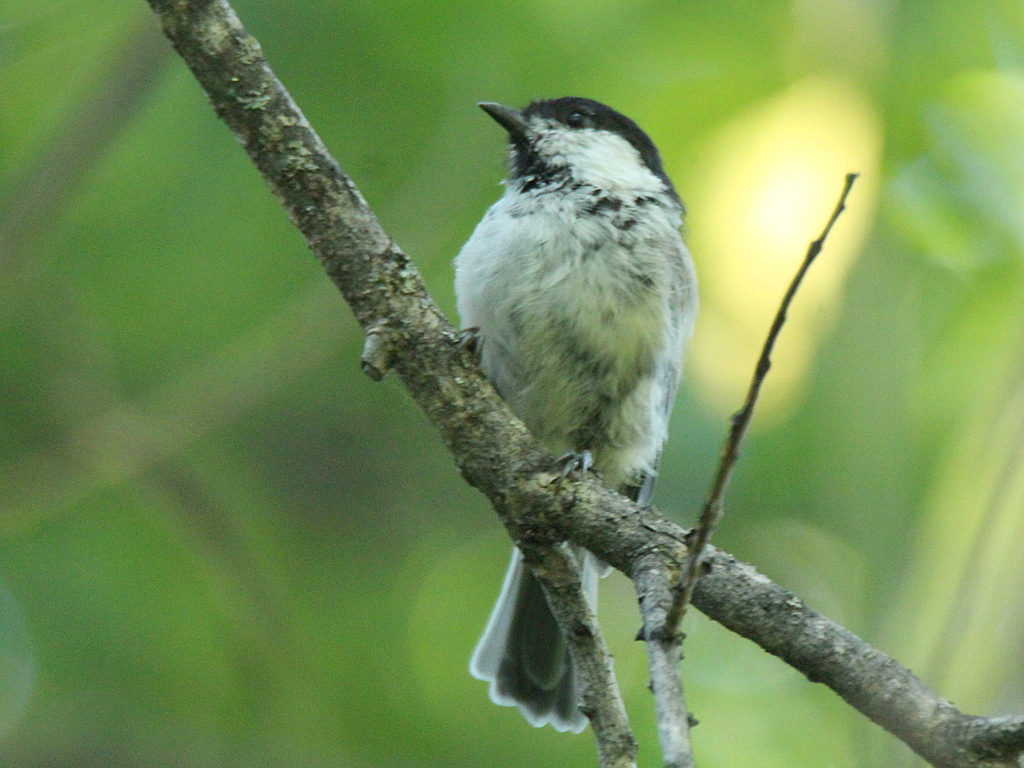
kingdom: Animalia
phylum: Chordata
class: Aves
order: Passeriformes
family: Paridae
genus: Poecile
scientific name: Poecile montanus
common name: Willow tit
